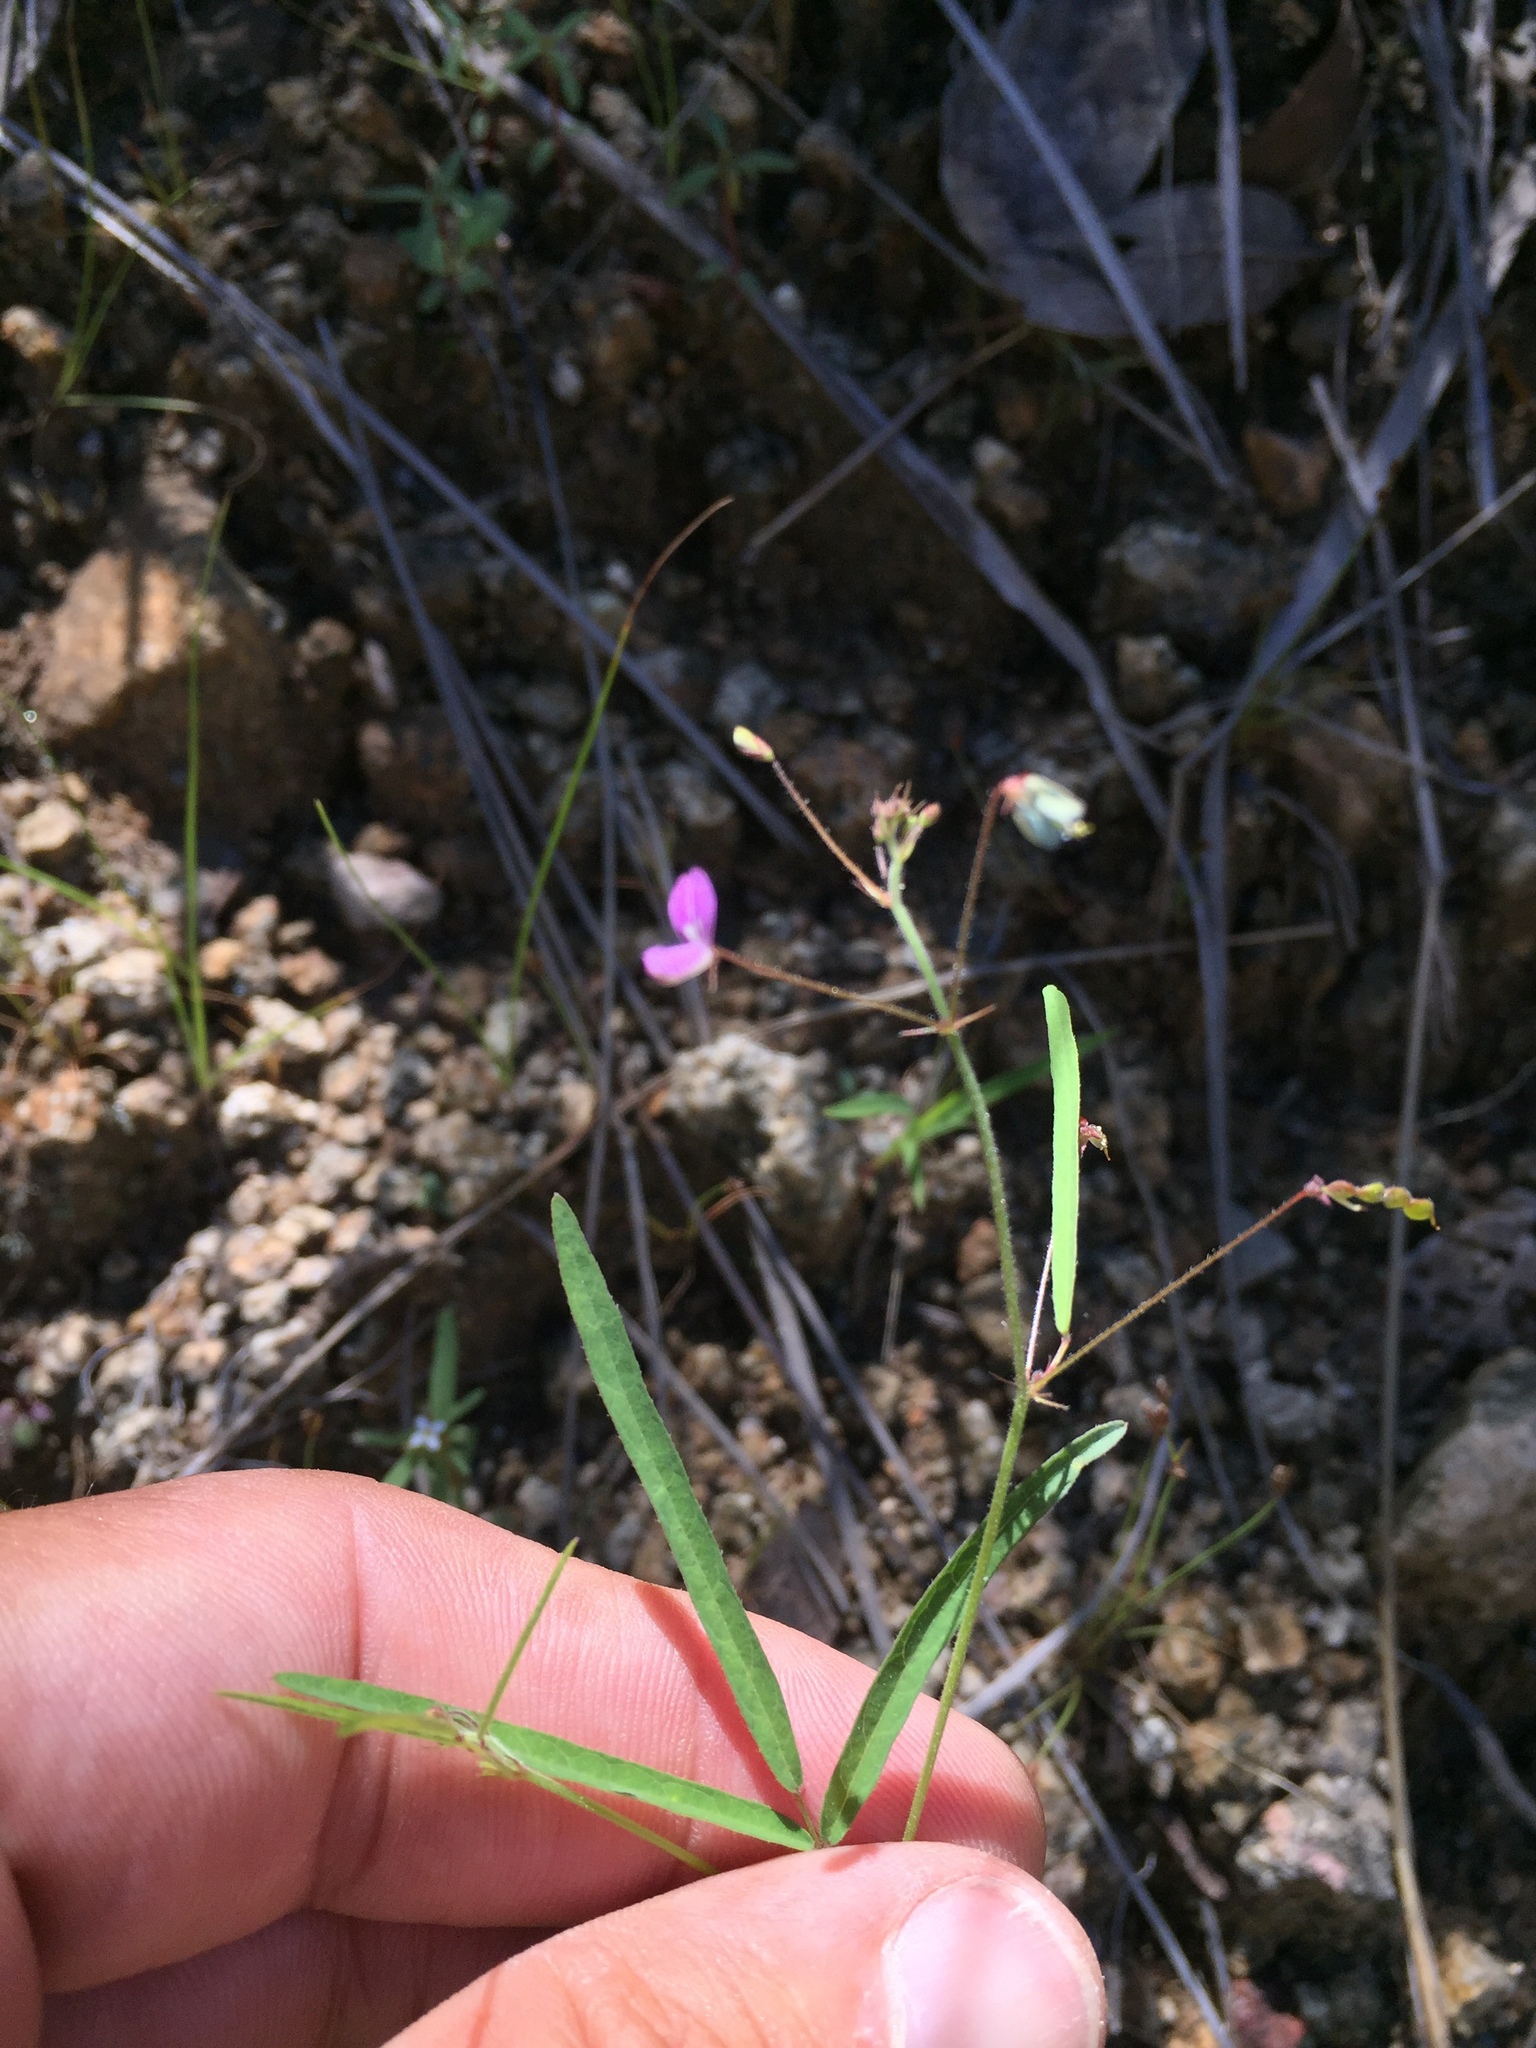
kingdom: Plantae
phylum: Tracheophyta
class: Magnoliopsida
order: Fabales
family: Fabaceae
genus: Desmodium
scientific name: Desmodium rosei
